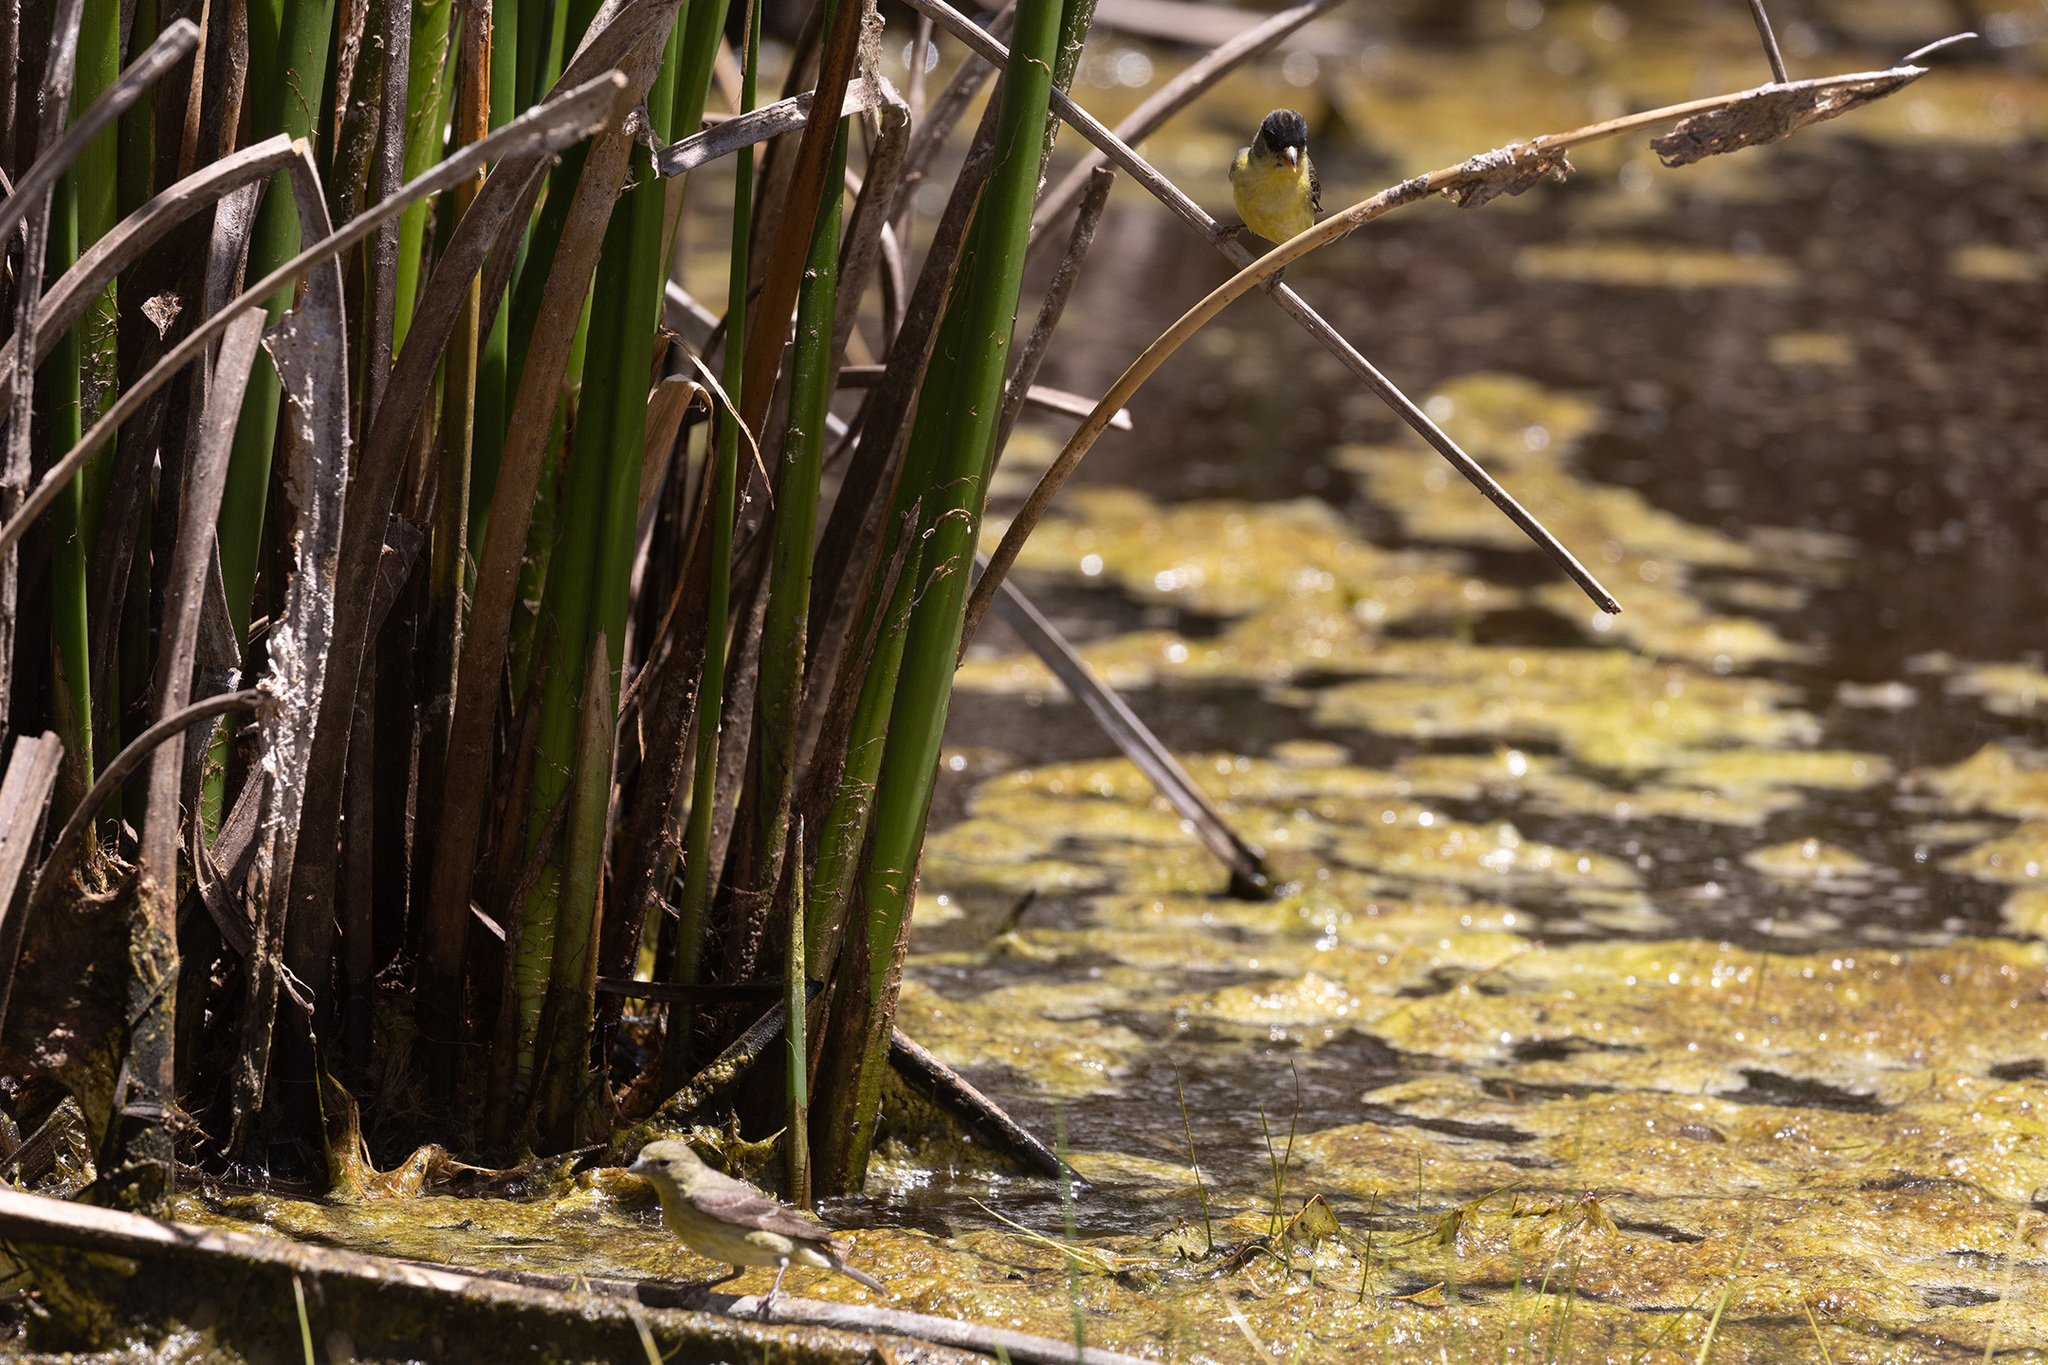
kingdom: Animalia
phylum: Chordata
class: Aves
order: Passeriformes
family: Fringillidae
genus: Spinus
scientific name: Spinus psaltria
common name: Lesser goldfinch
